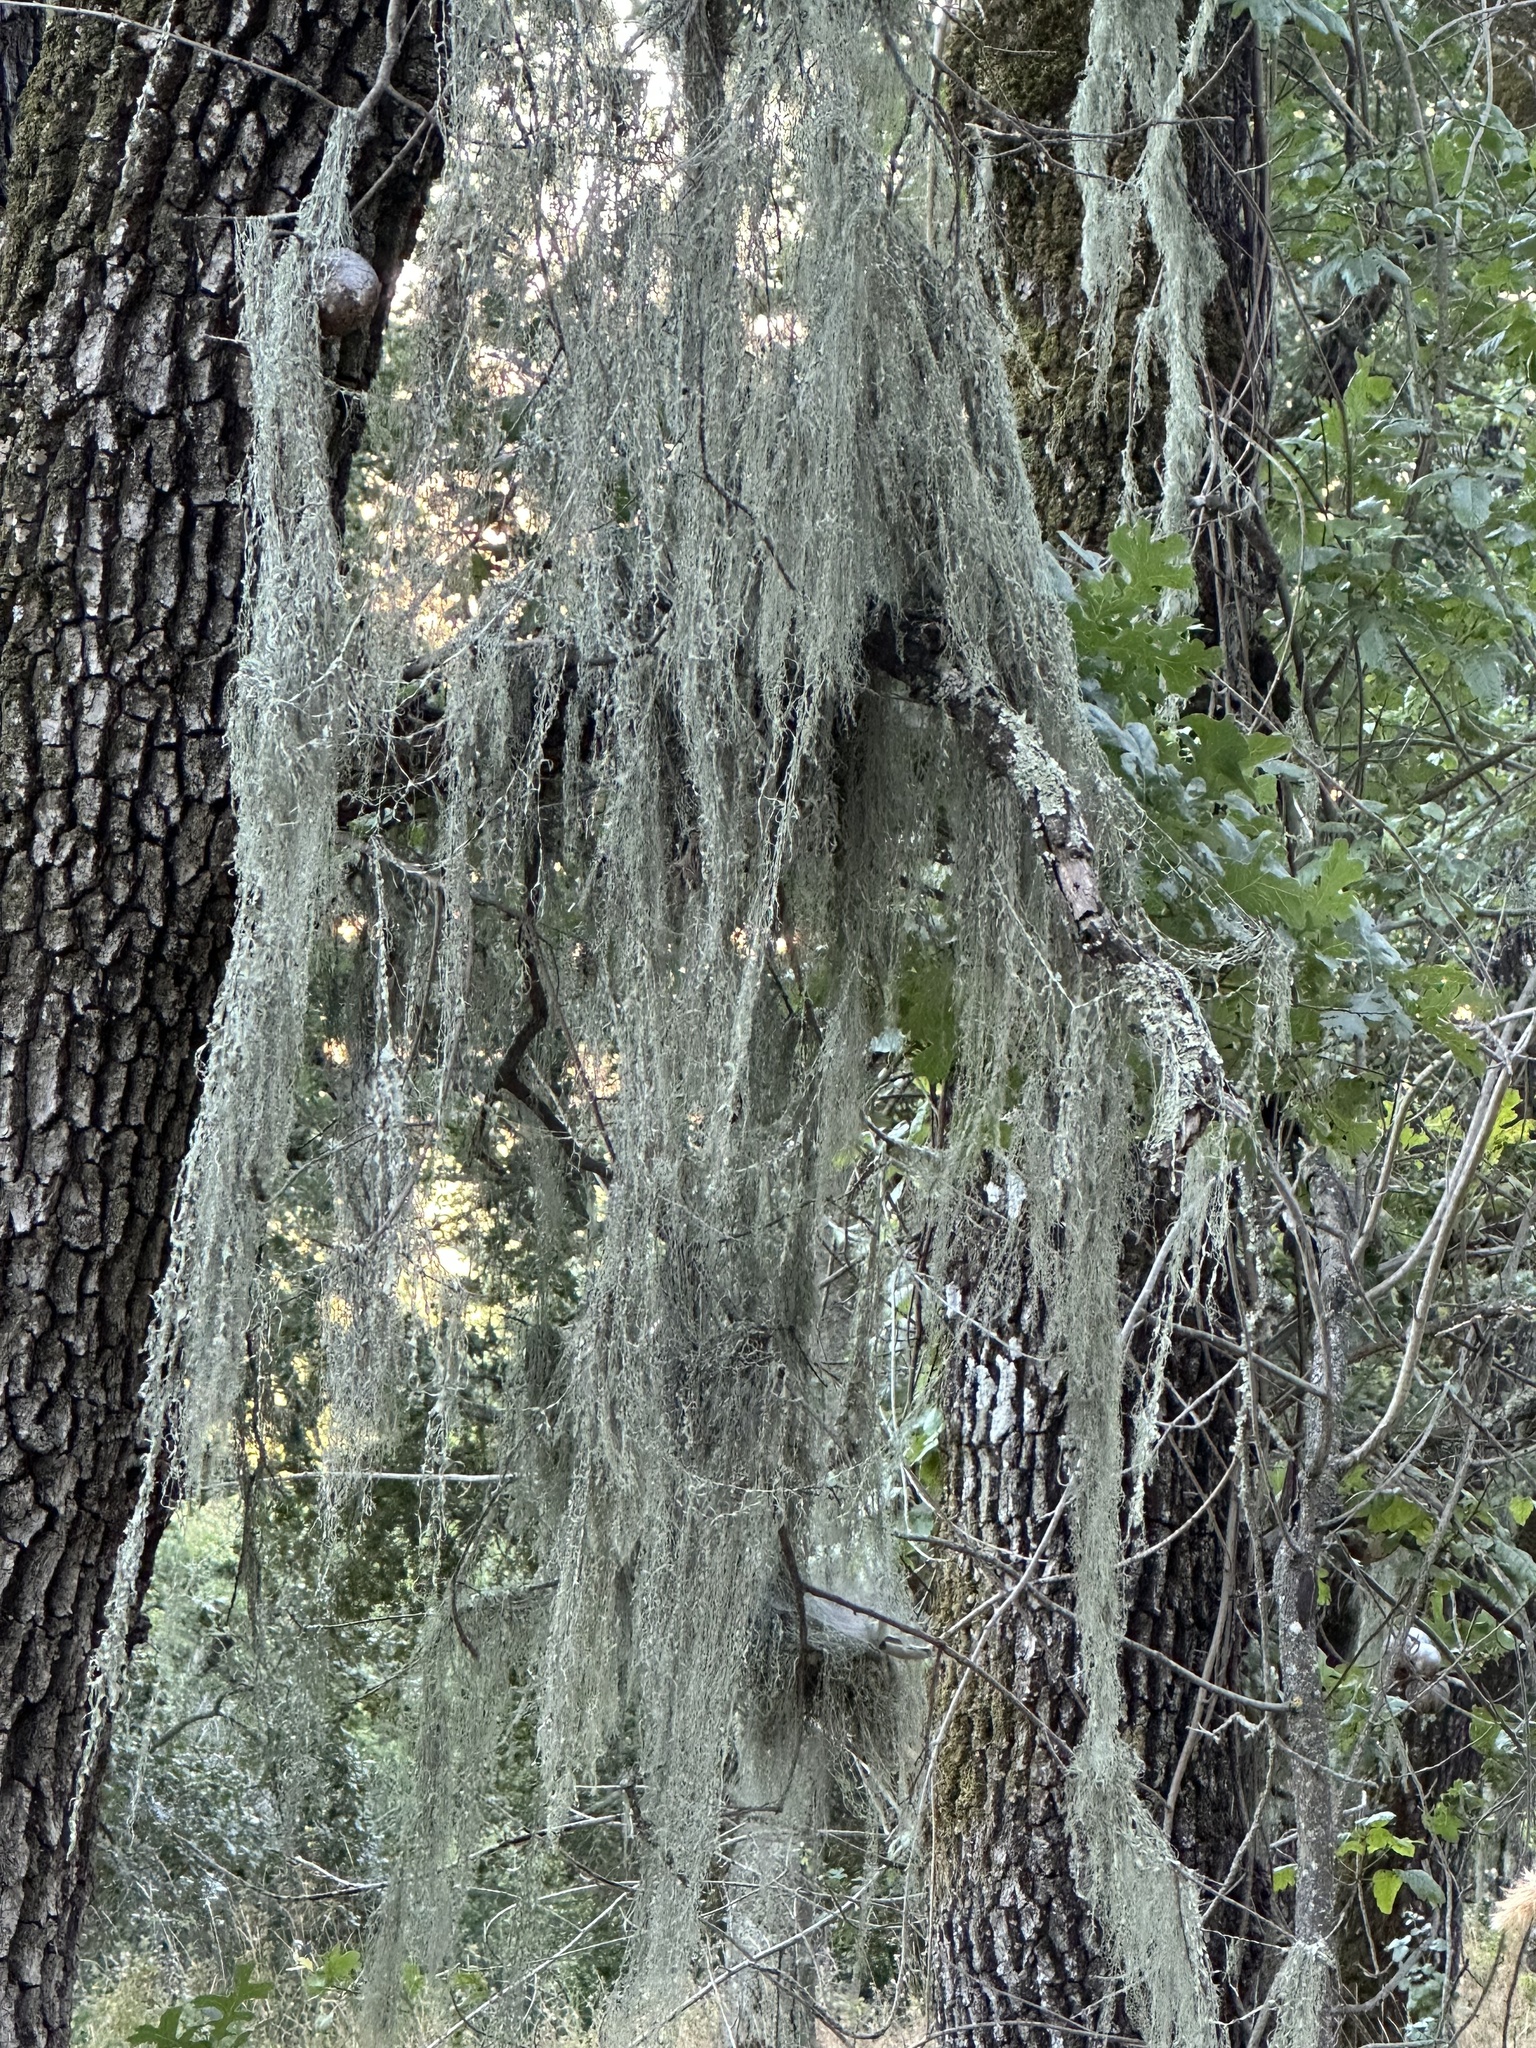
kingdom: Fungi
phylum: Ascomycota
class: Lecanoromycetes
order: Lecanorales
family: Ramalinaceae
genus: Ramalina
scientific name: Ramalina menziesii
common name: Lace lichen
